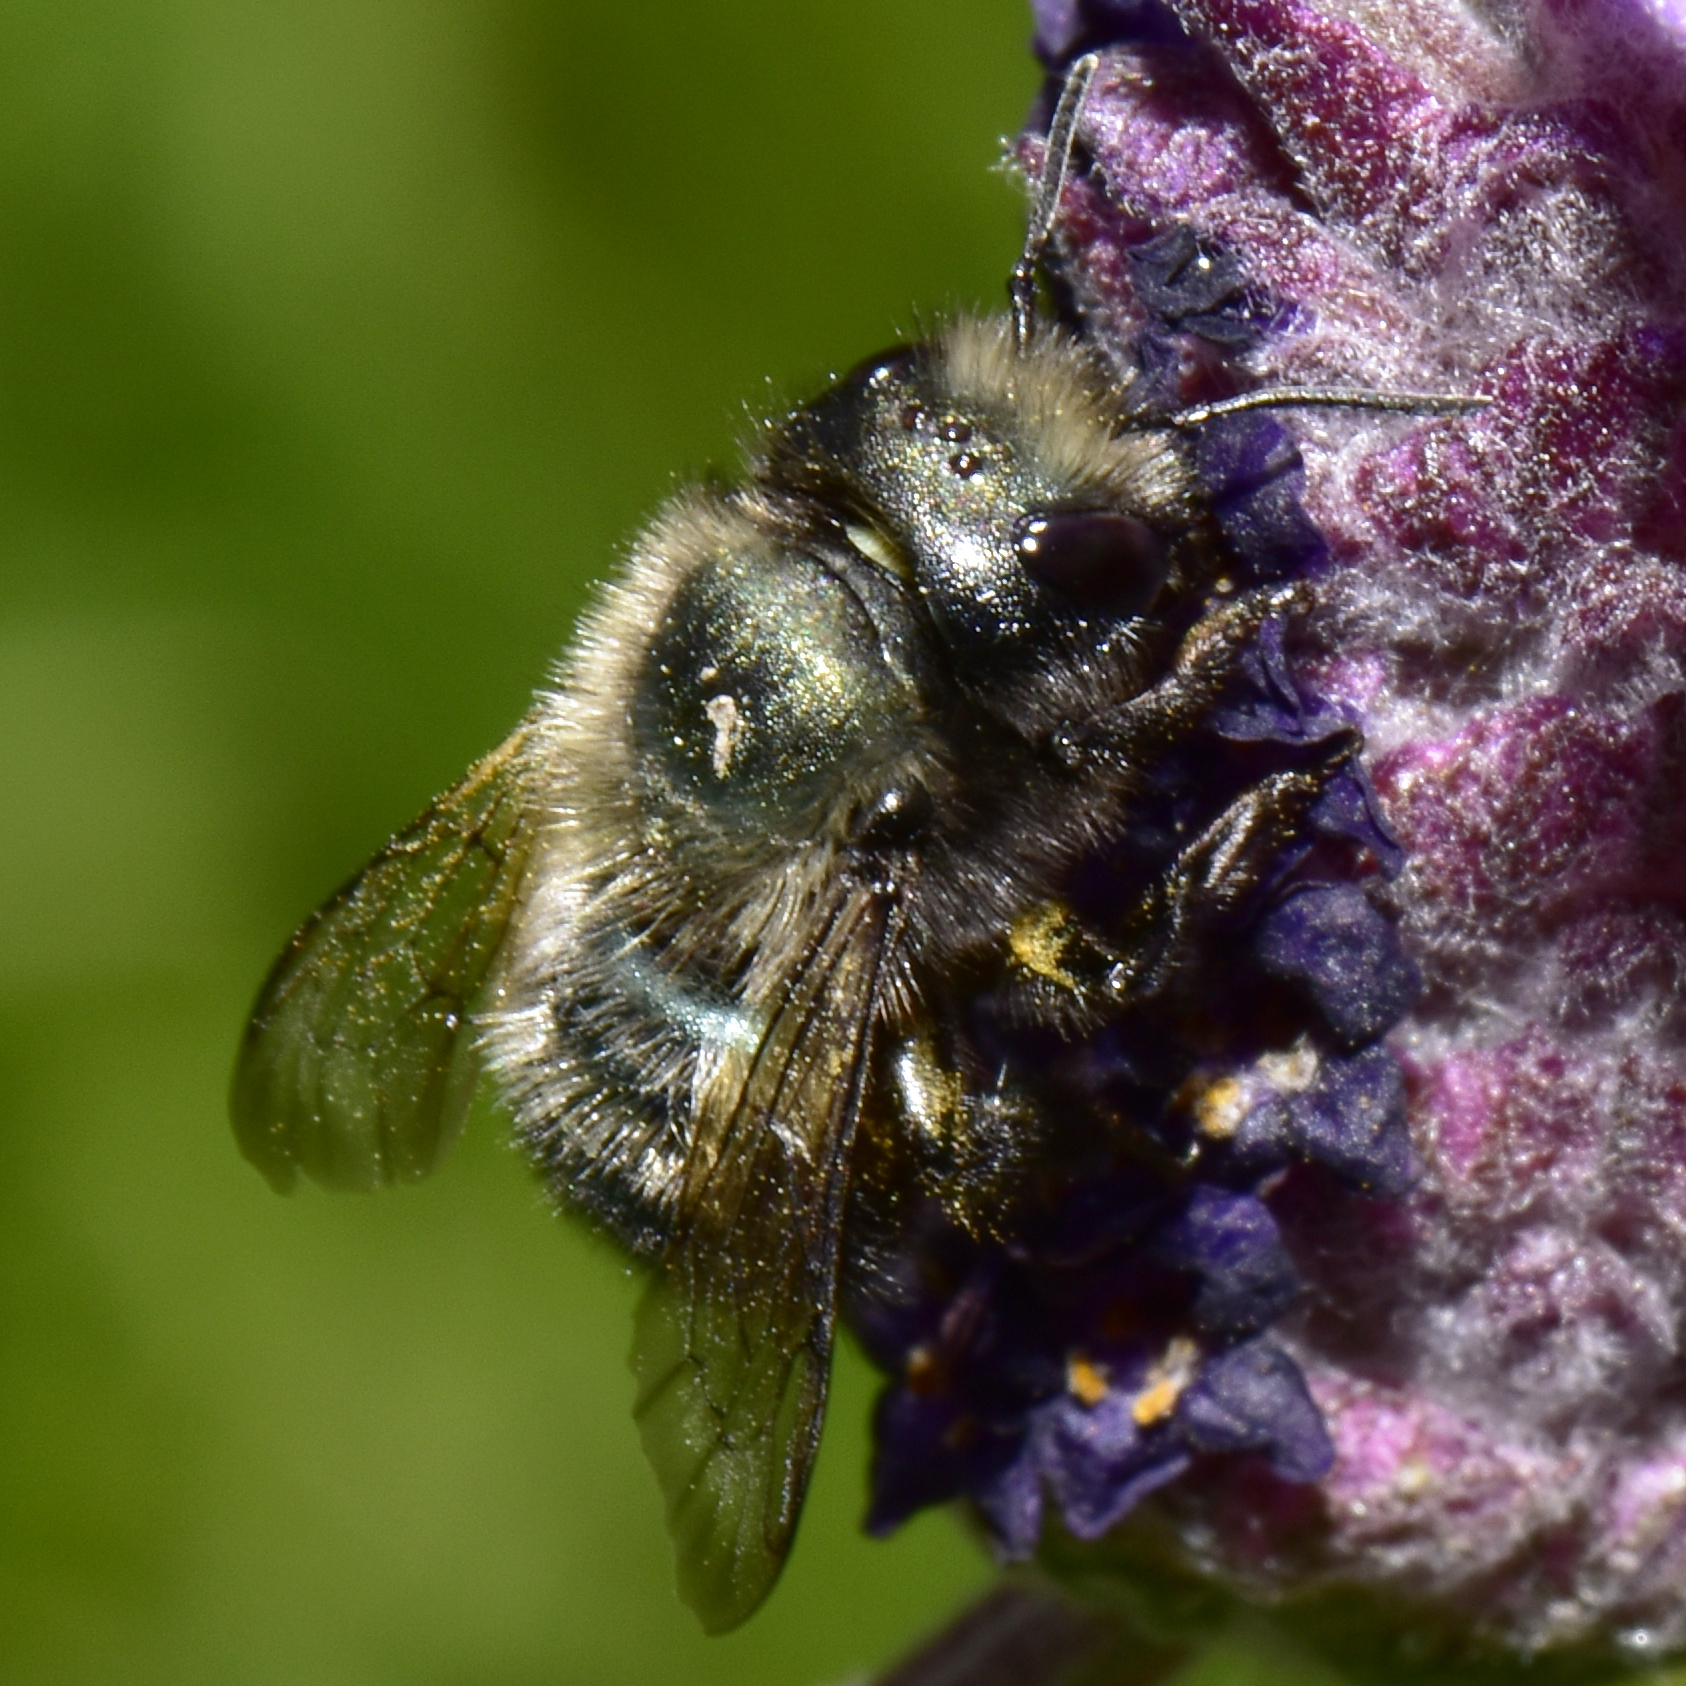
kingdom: Animalia
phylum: Arthropoda
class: Insecta
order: Hymenoptera
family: Megachilidae
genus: Osmia
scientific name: Osmia lignaria
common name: Blue orchard bee
